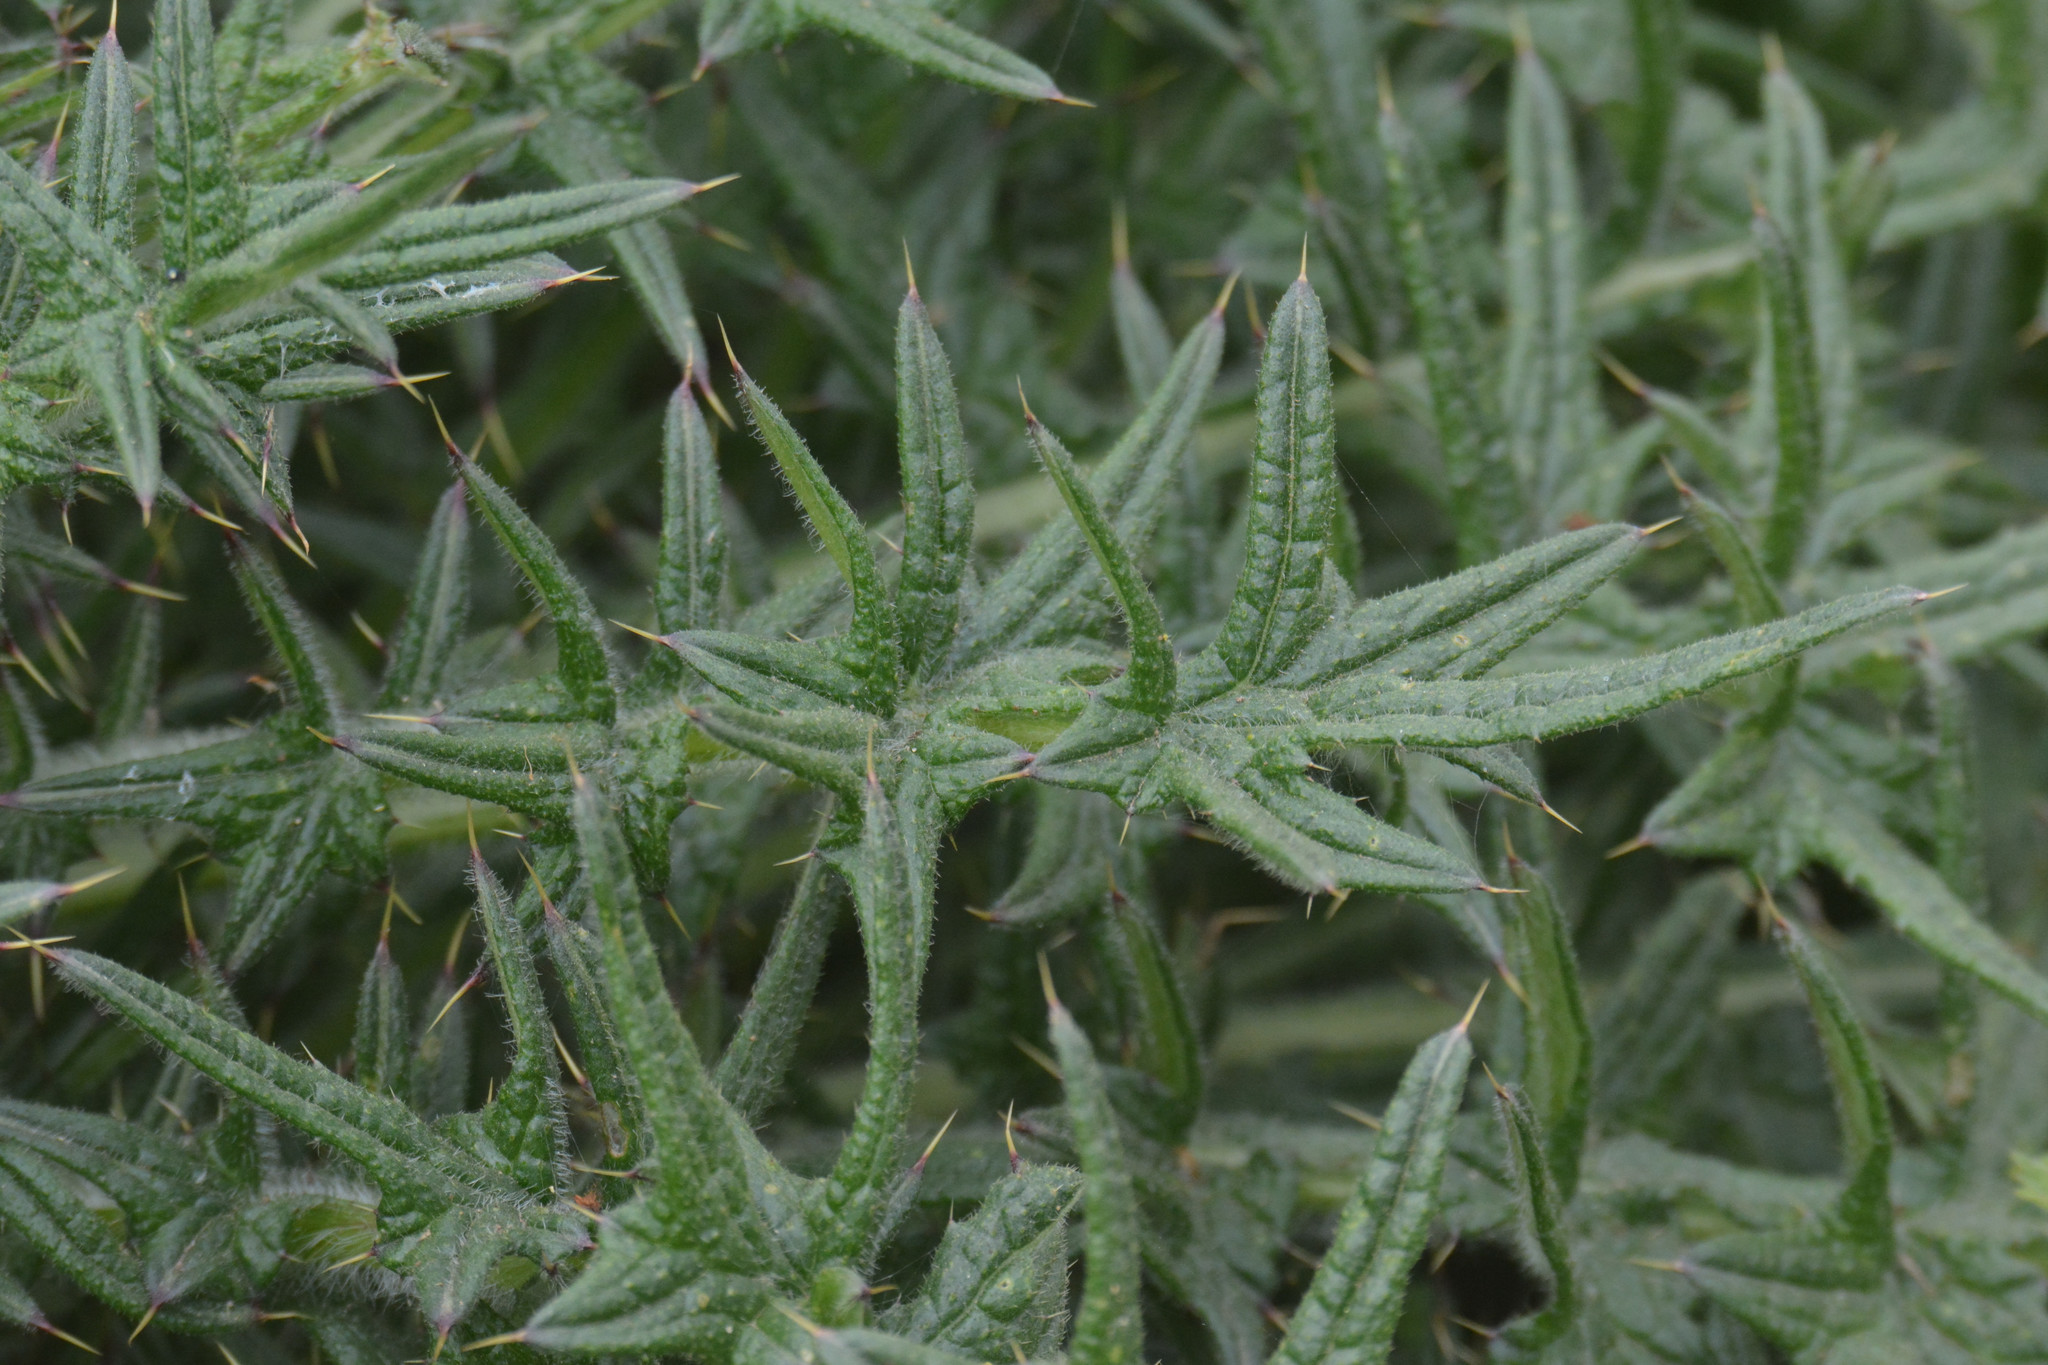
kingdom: Plantae
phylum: Tracheophyta
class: Magnoliopsida
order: Asterales
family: Asteraceae
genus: Cirsium
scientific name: Cirsium vulgare
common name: Bull thistle
